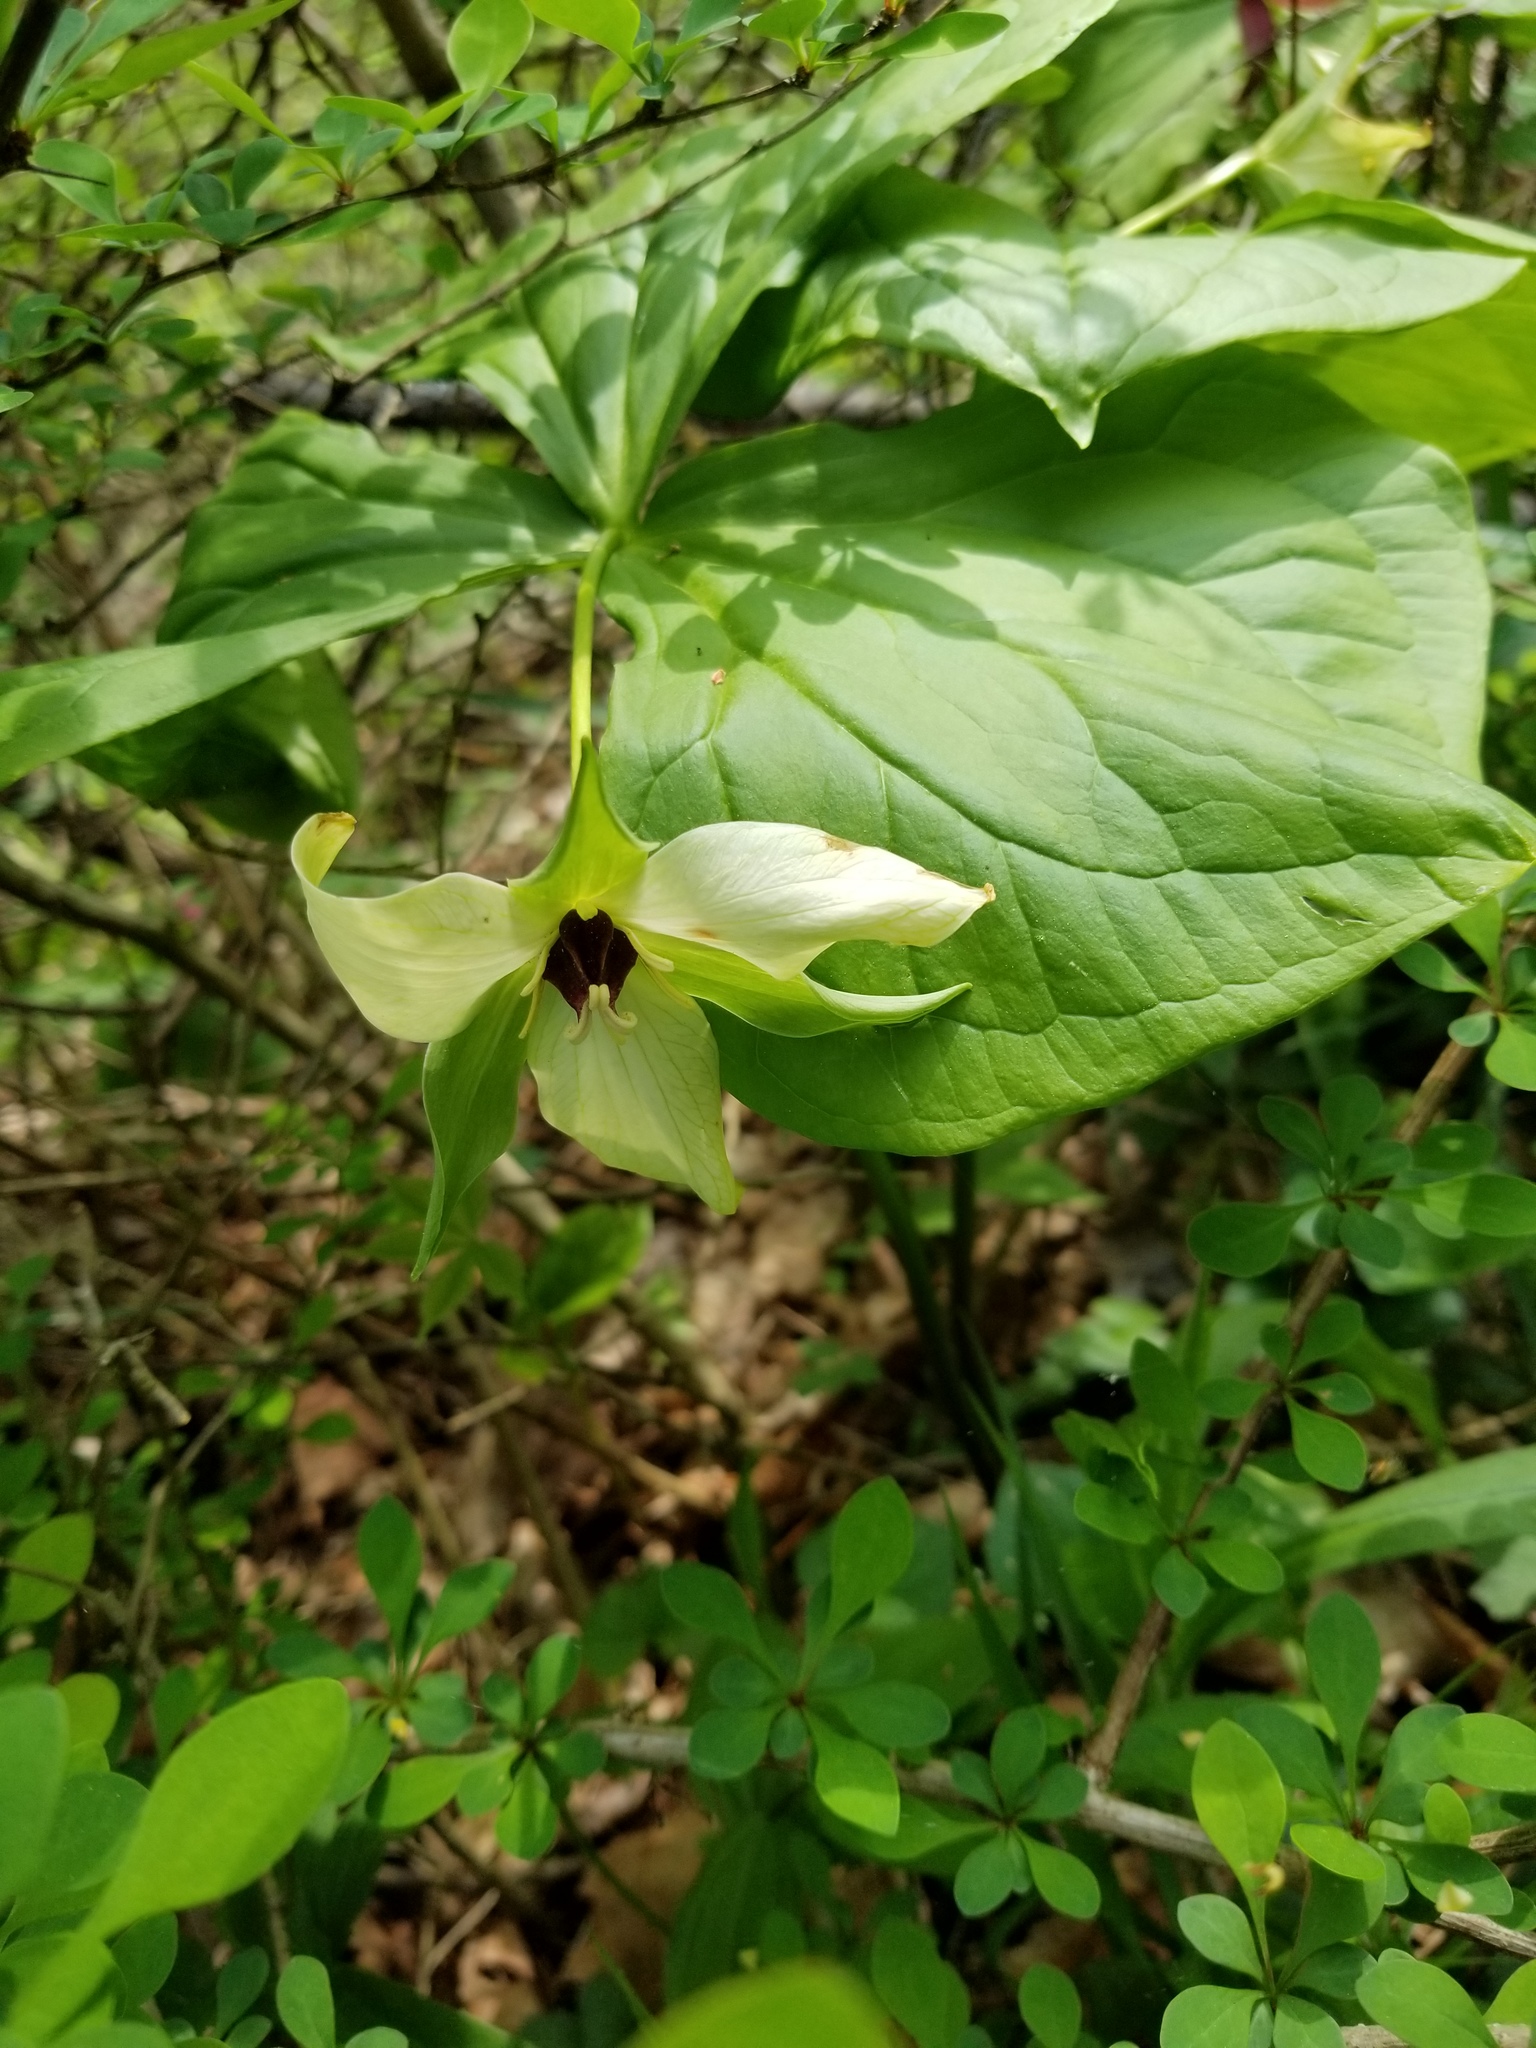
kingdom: Plantae
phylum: Tracheophyta
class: Liliopsida
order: Liliales
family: Melanthiaceae
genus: Trillium
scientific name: Trillium erectum
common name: Purple trillium
